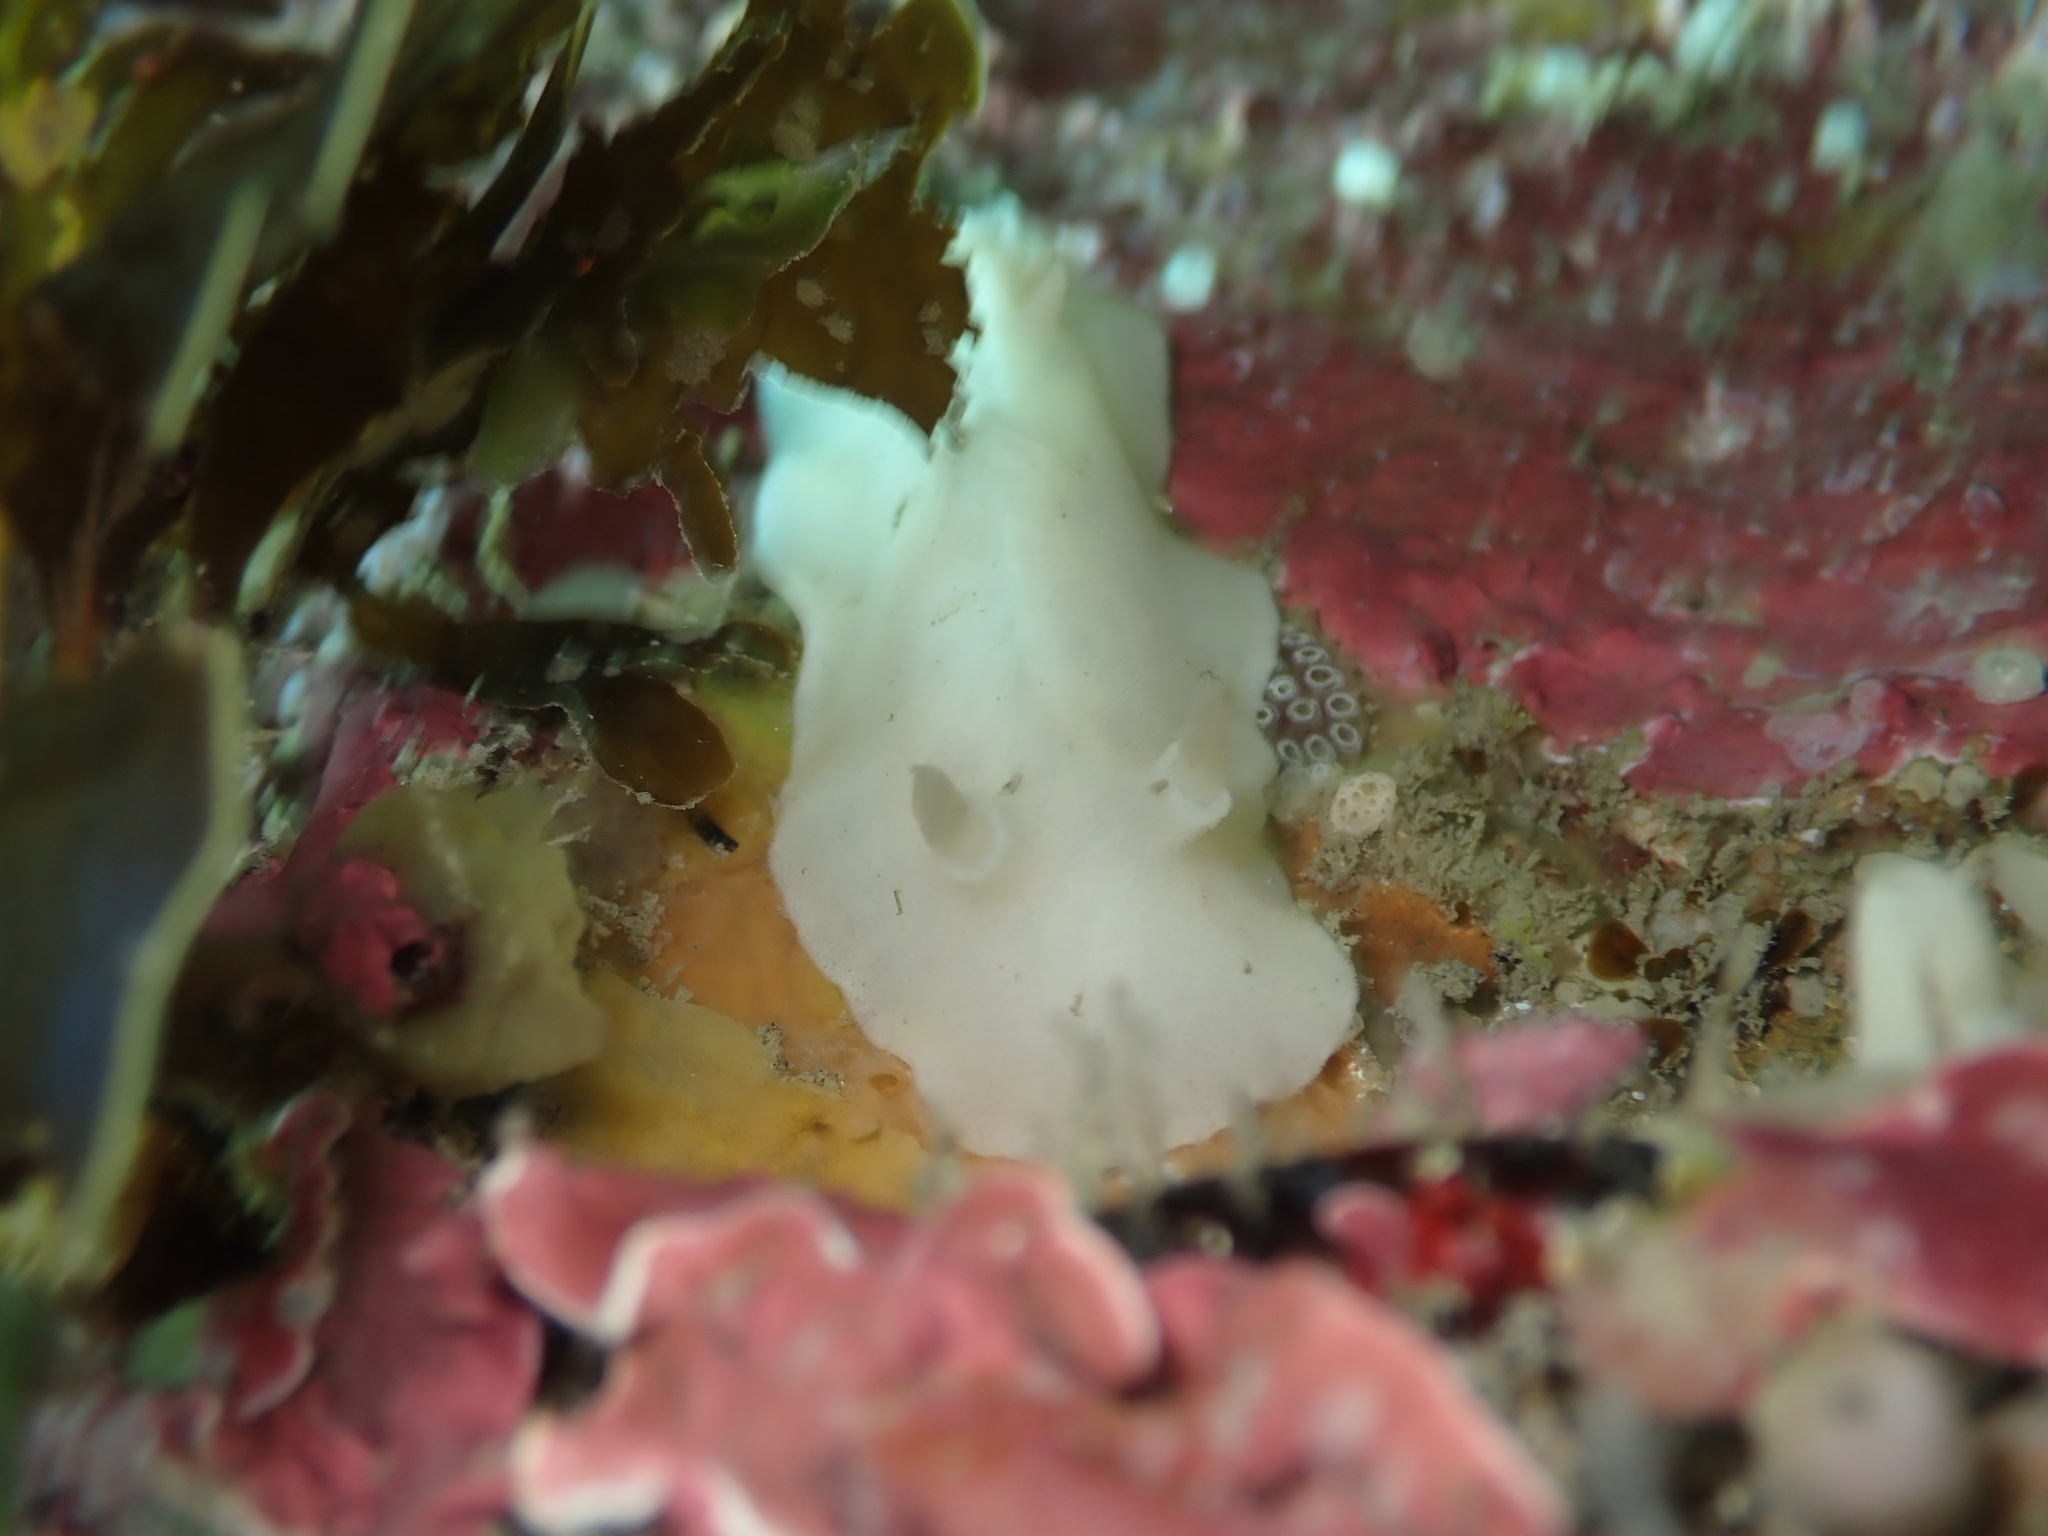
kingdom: Animalia
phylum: Mollusca
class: Gastropoda
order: Nudibranchia
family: Discodorididae
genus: Atagema
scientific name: Atagema carinata
